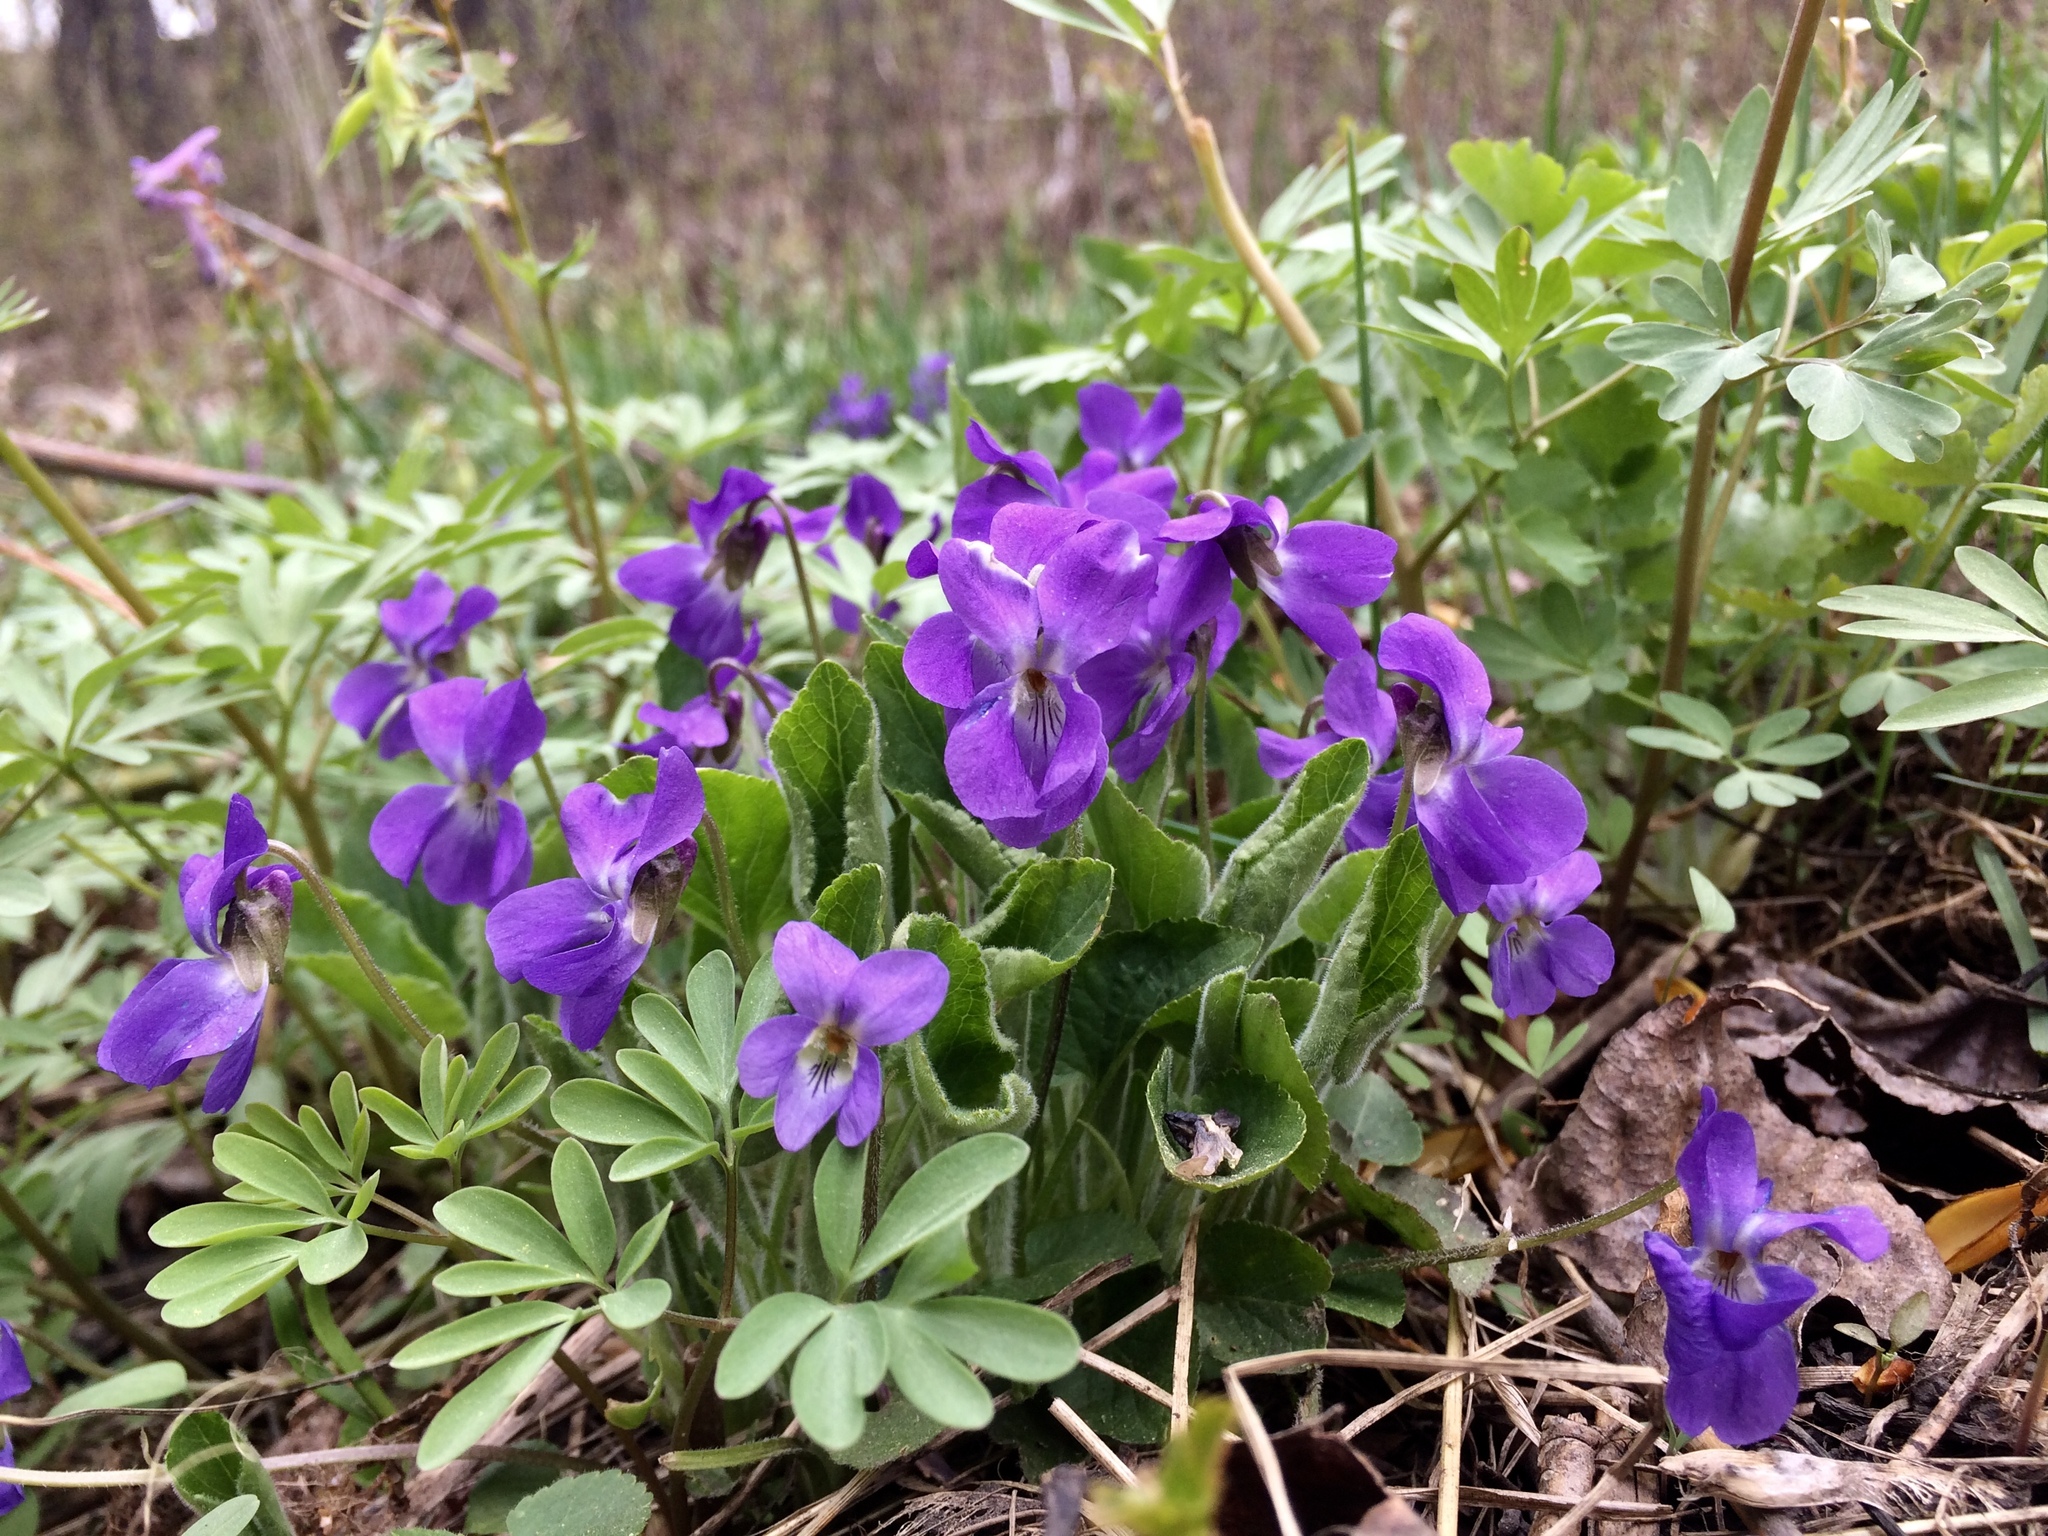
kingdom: Plantae
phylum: Tracheophyta
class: Magnoliopsida
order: Malpighiales
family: Violaceae
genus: Viola
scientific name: Viola hirta
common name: Hairy violet
